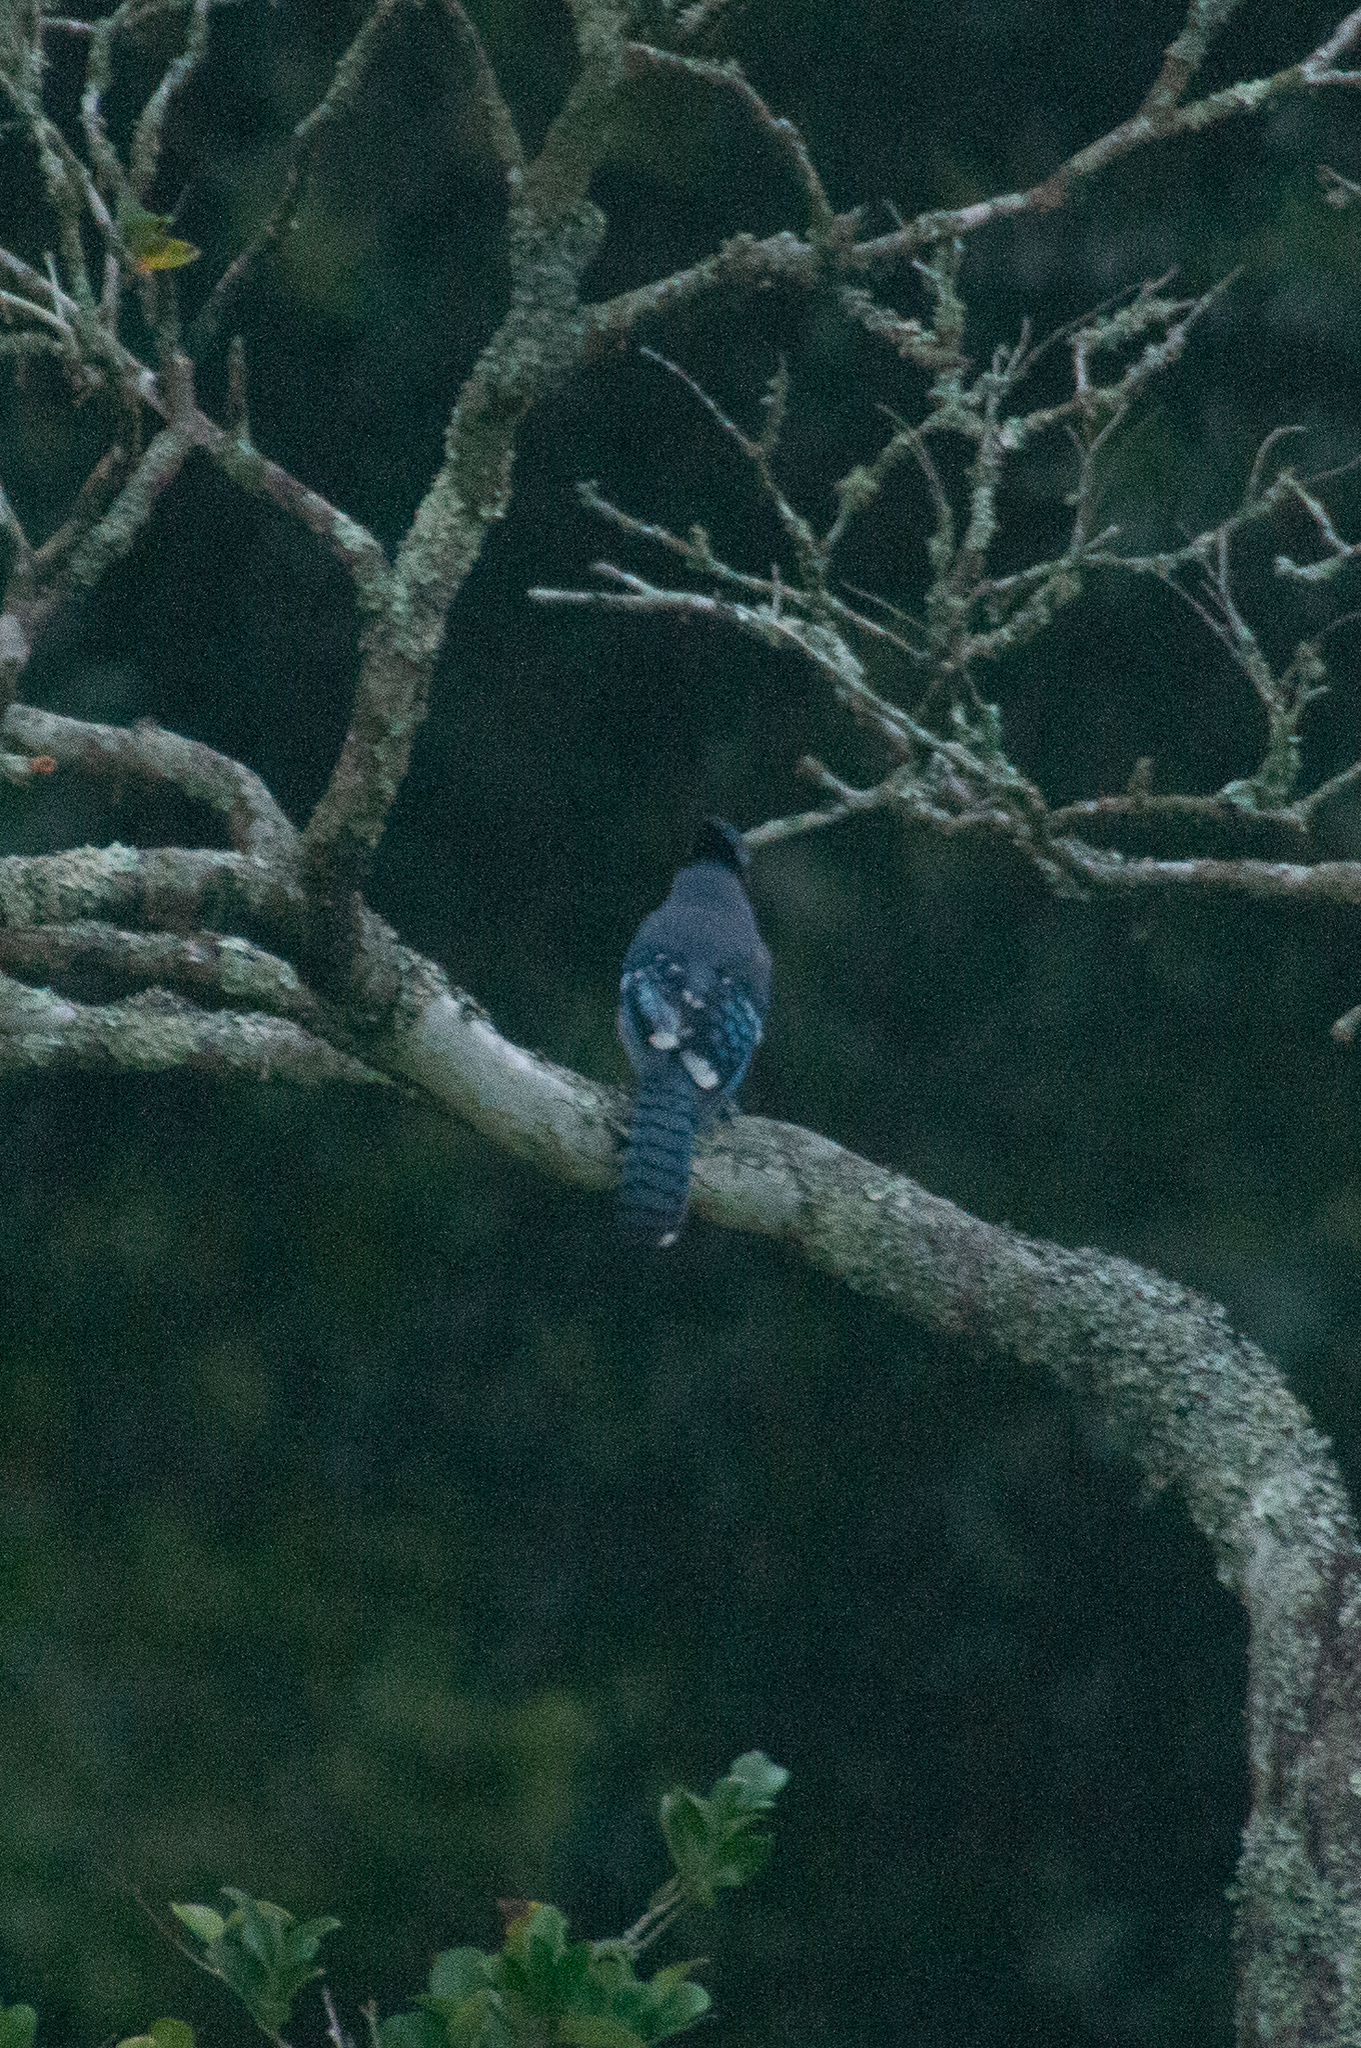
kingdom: Animalia
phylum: Chordata
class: Aves
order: Passeriformes
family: Corvidae
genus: Cyanocitta
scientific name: Cyanocitta cristata
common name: Blue jay
